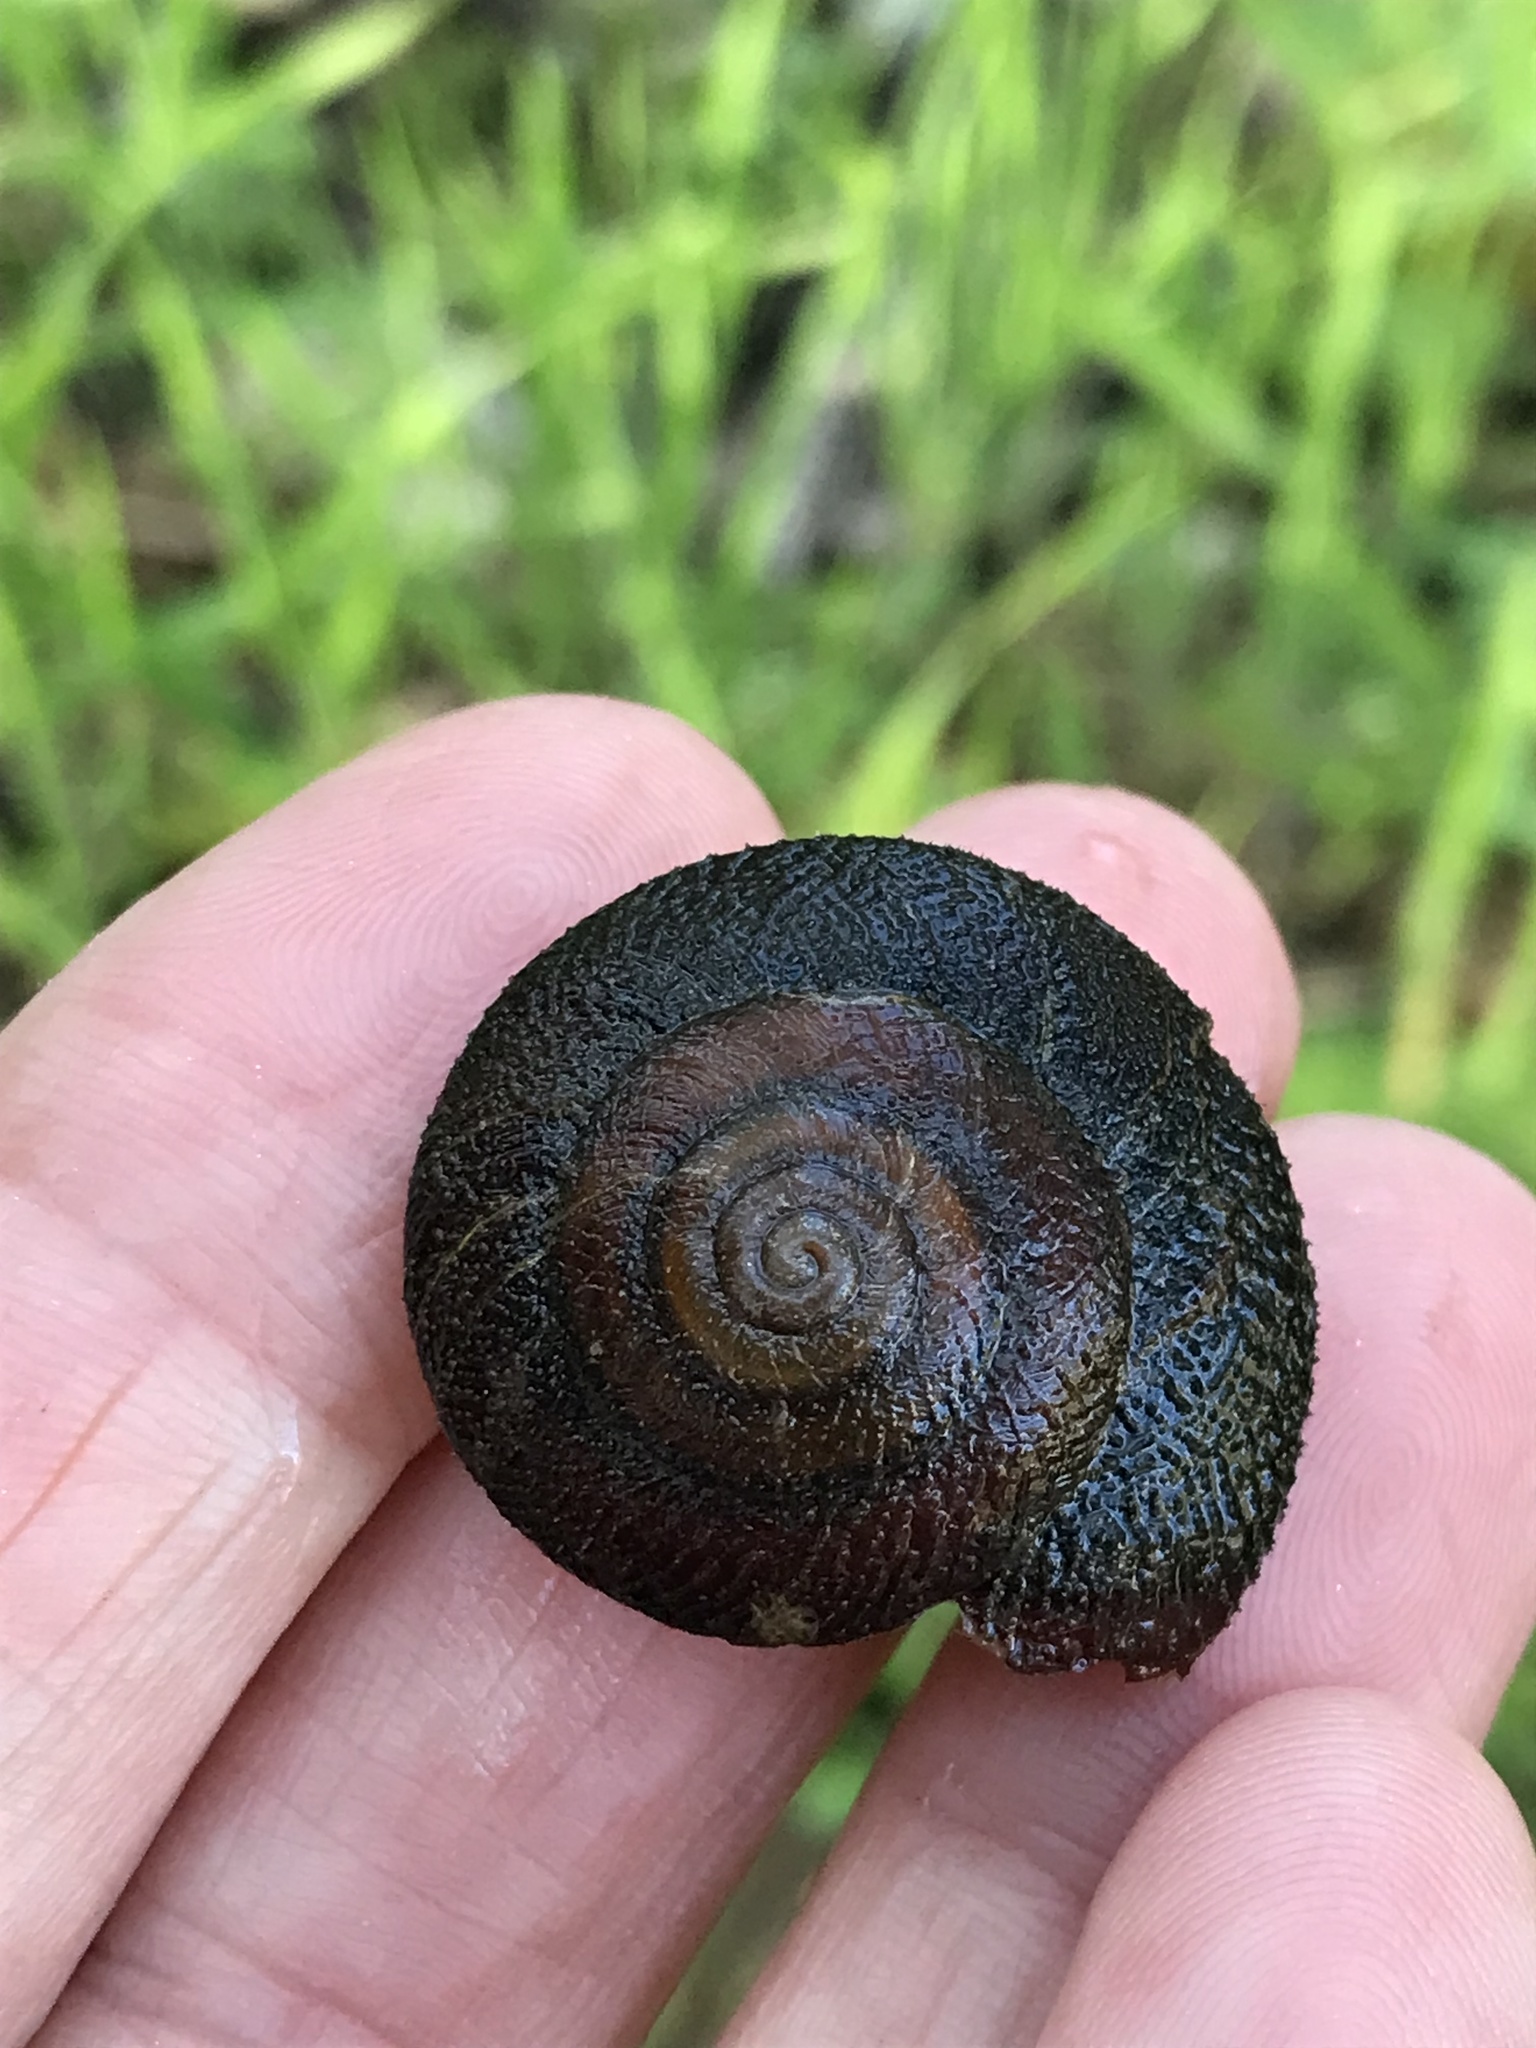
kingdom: Animalia
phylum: Mollusca
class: Gastropoda
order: Stylommatophora
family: Xanthonychidae
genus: Monadenia
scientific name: Monadenia infumata
